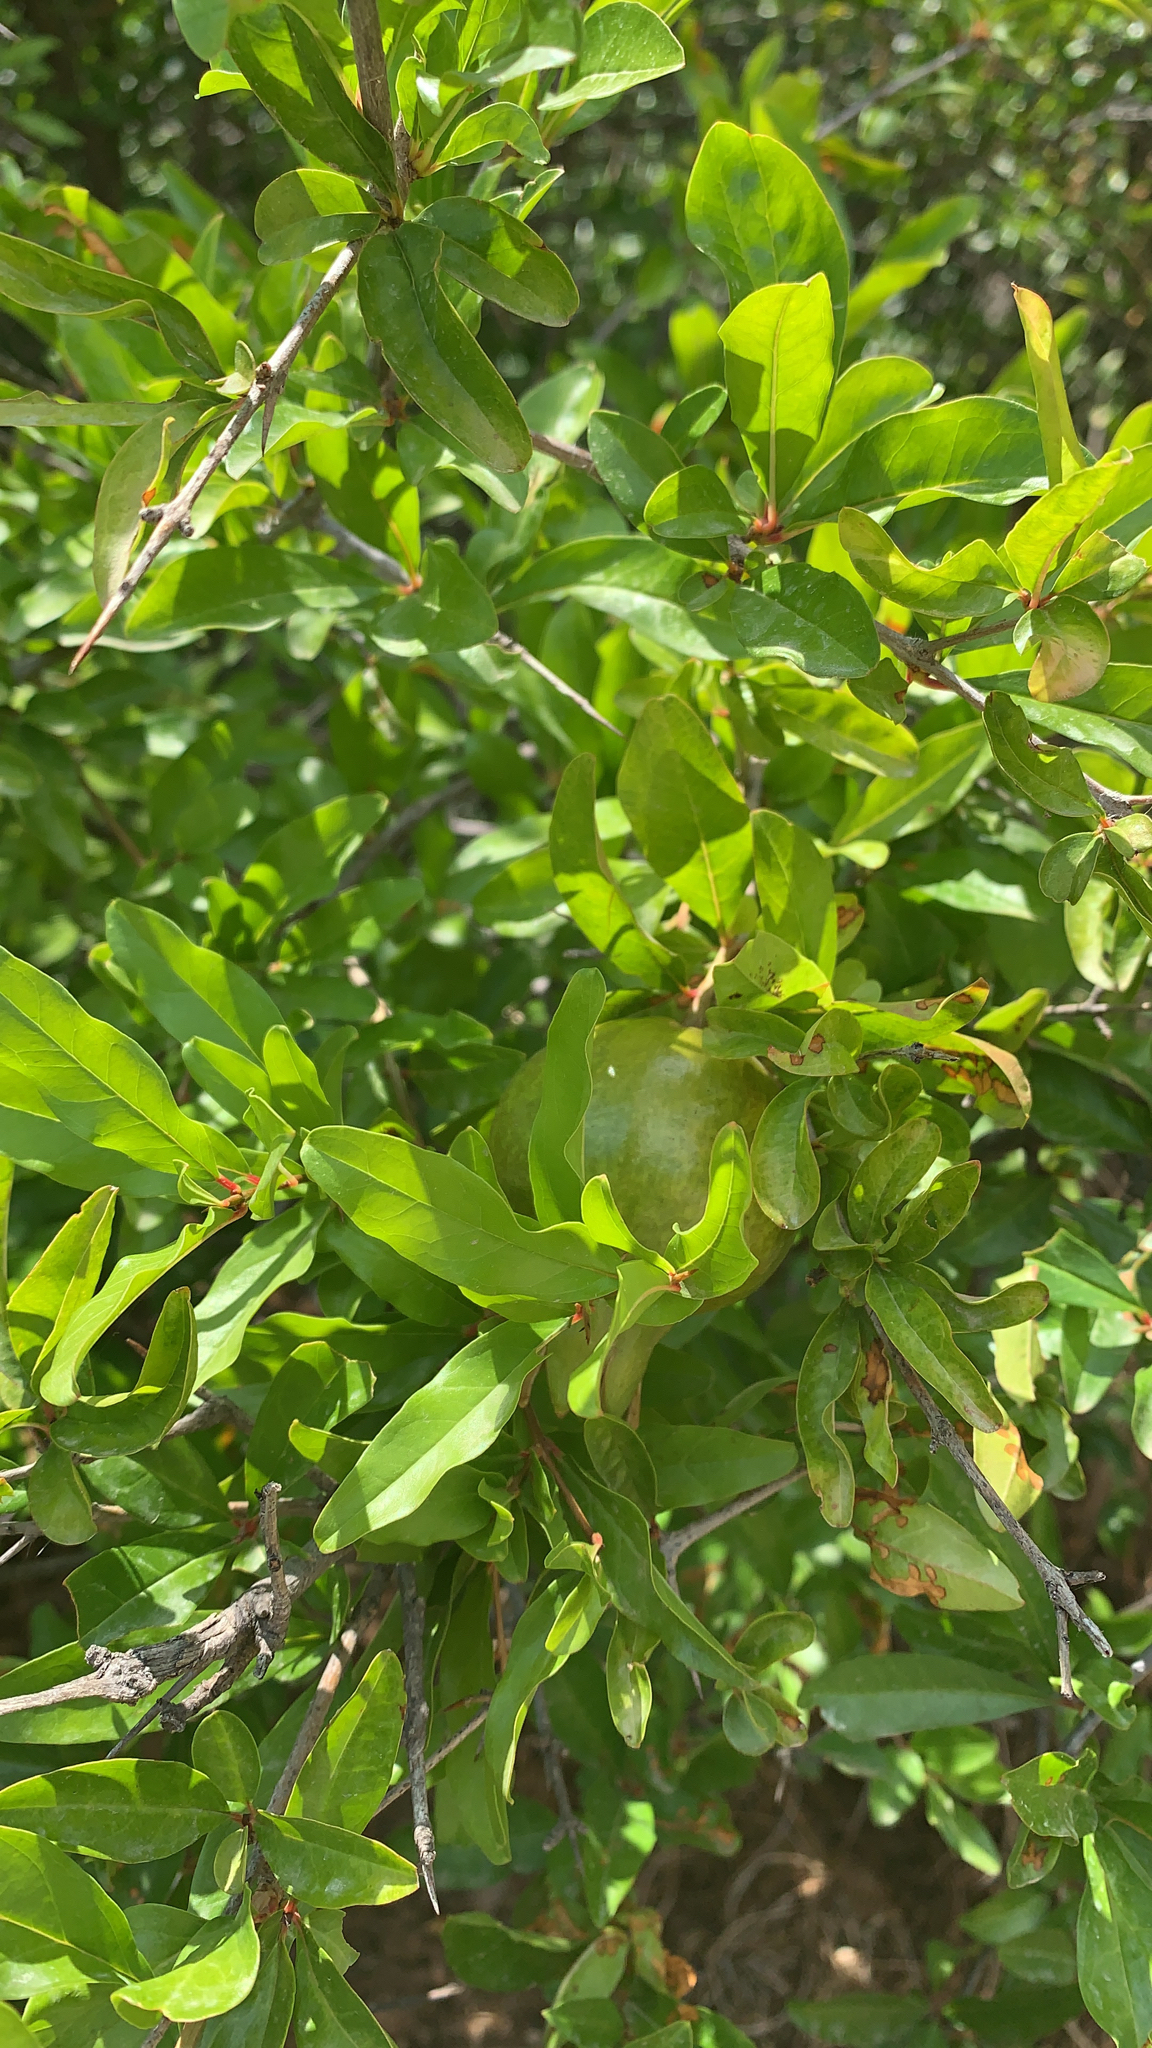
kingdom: Plantae
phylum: Tracheophyta
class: Magnoliopsida
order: Myrtales
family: Lythraceae
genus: Punica
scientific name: Punica granatum
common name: Pomegranate
